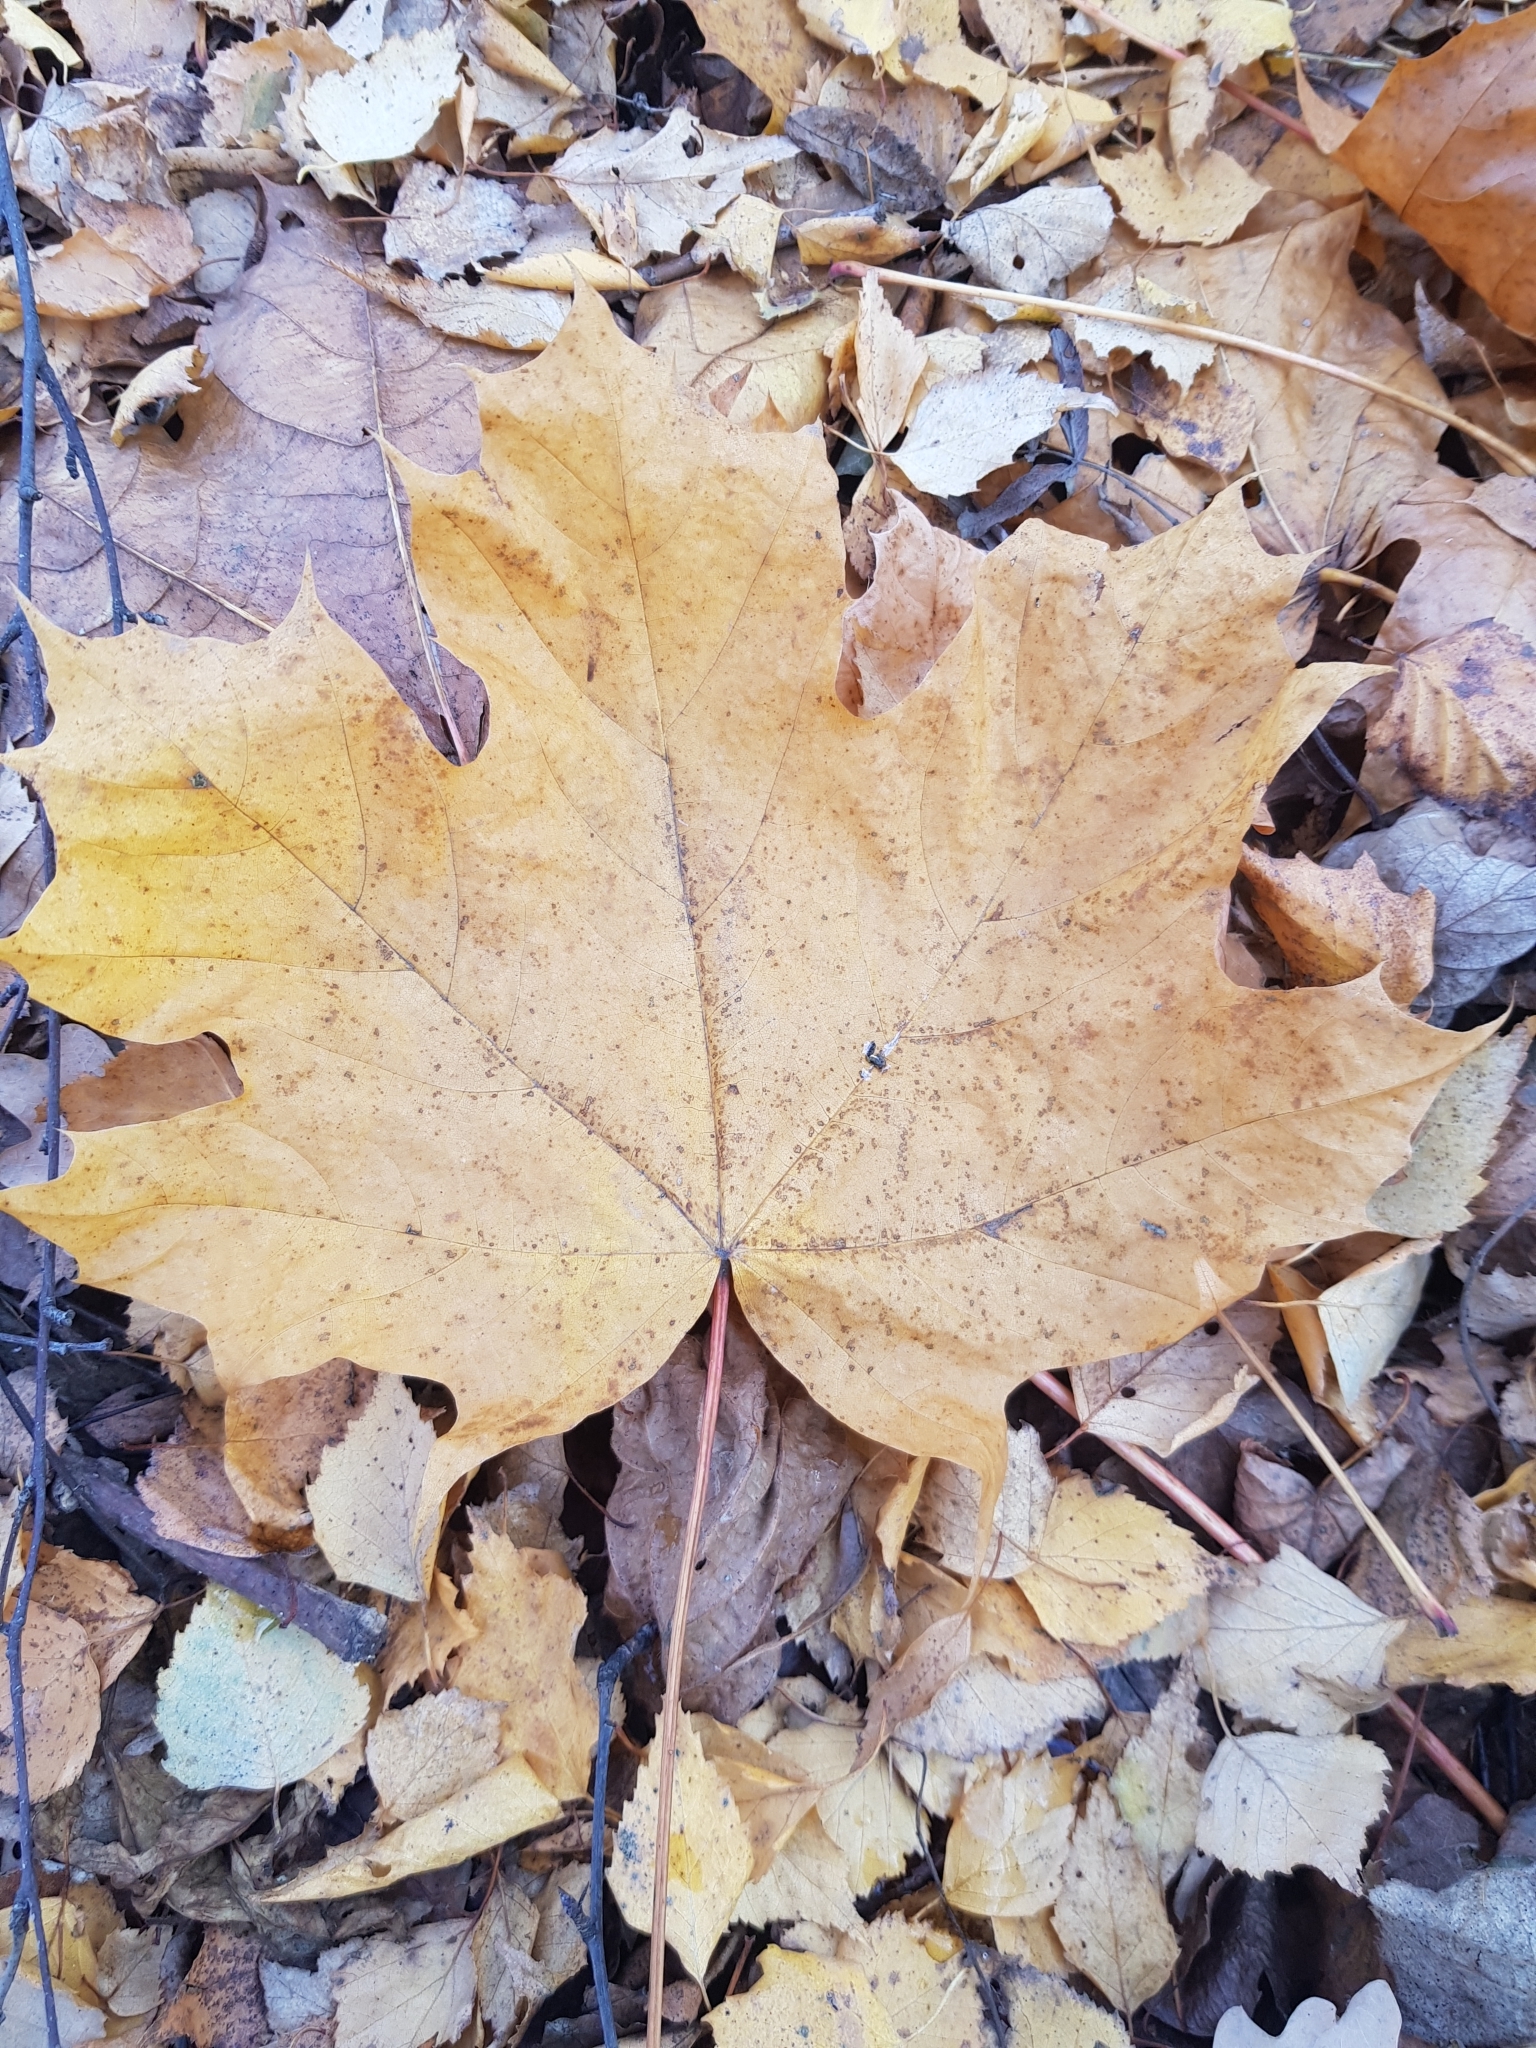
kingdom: Plantae
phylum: Tracheophyta
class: Magnoliopsida
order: Sapindales
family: Sapindaceae
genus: Acer
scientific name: Acer platanoides
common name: Norway maple
